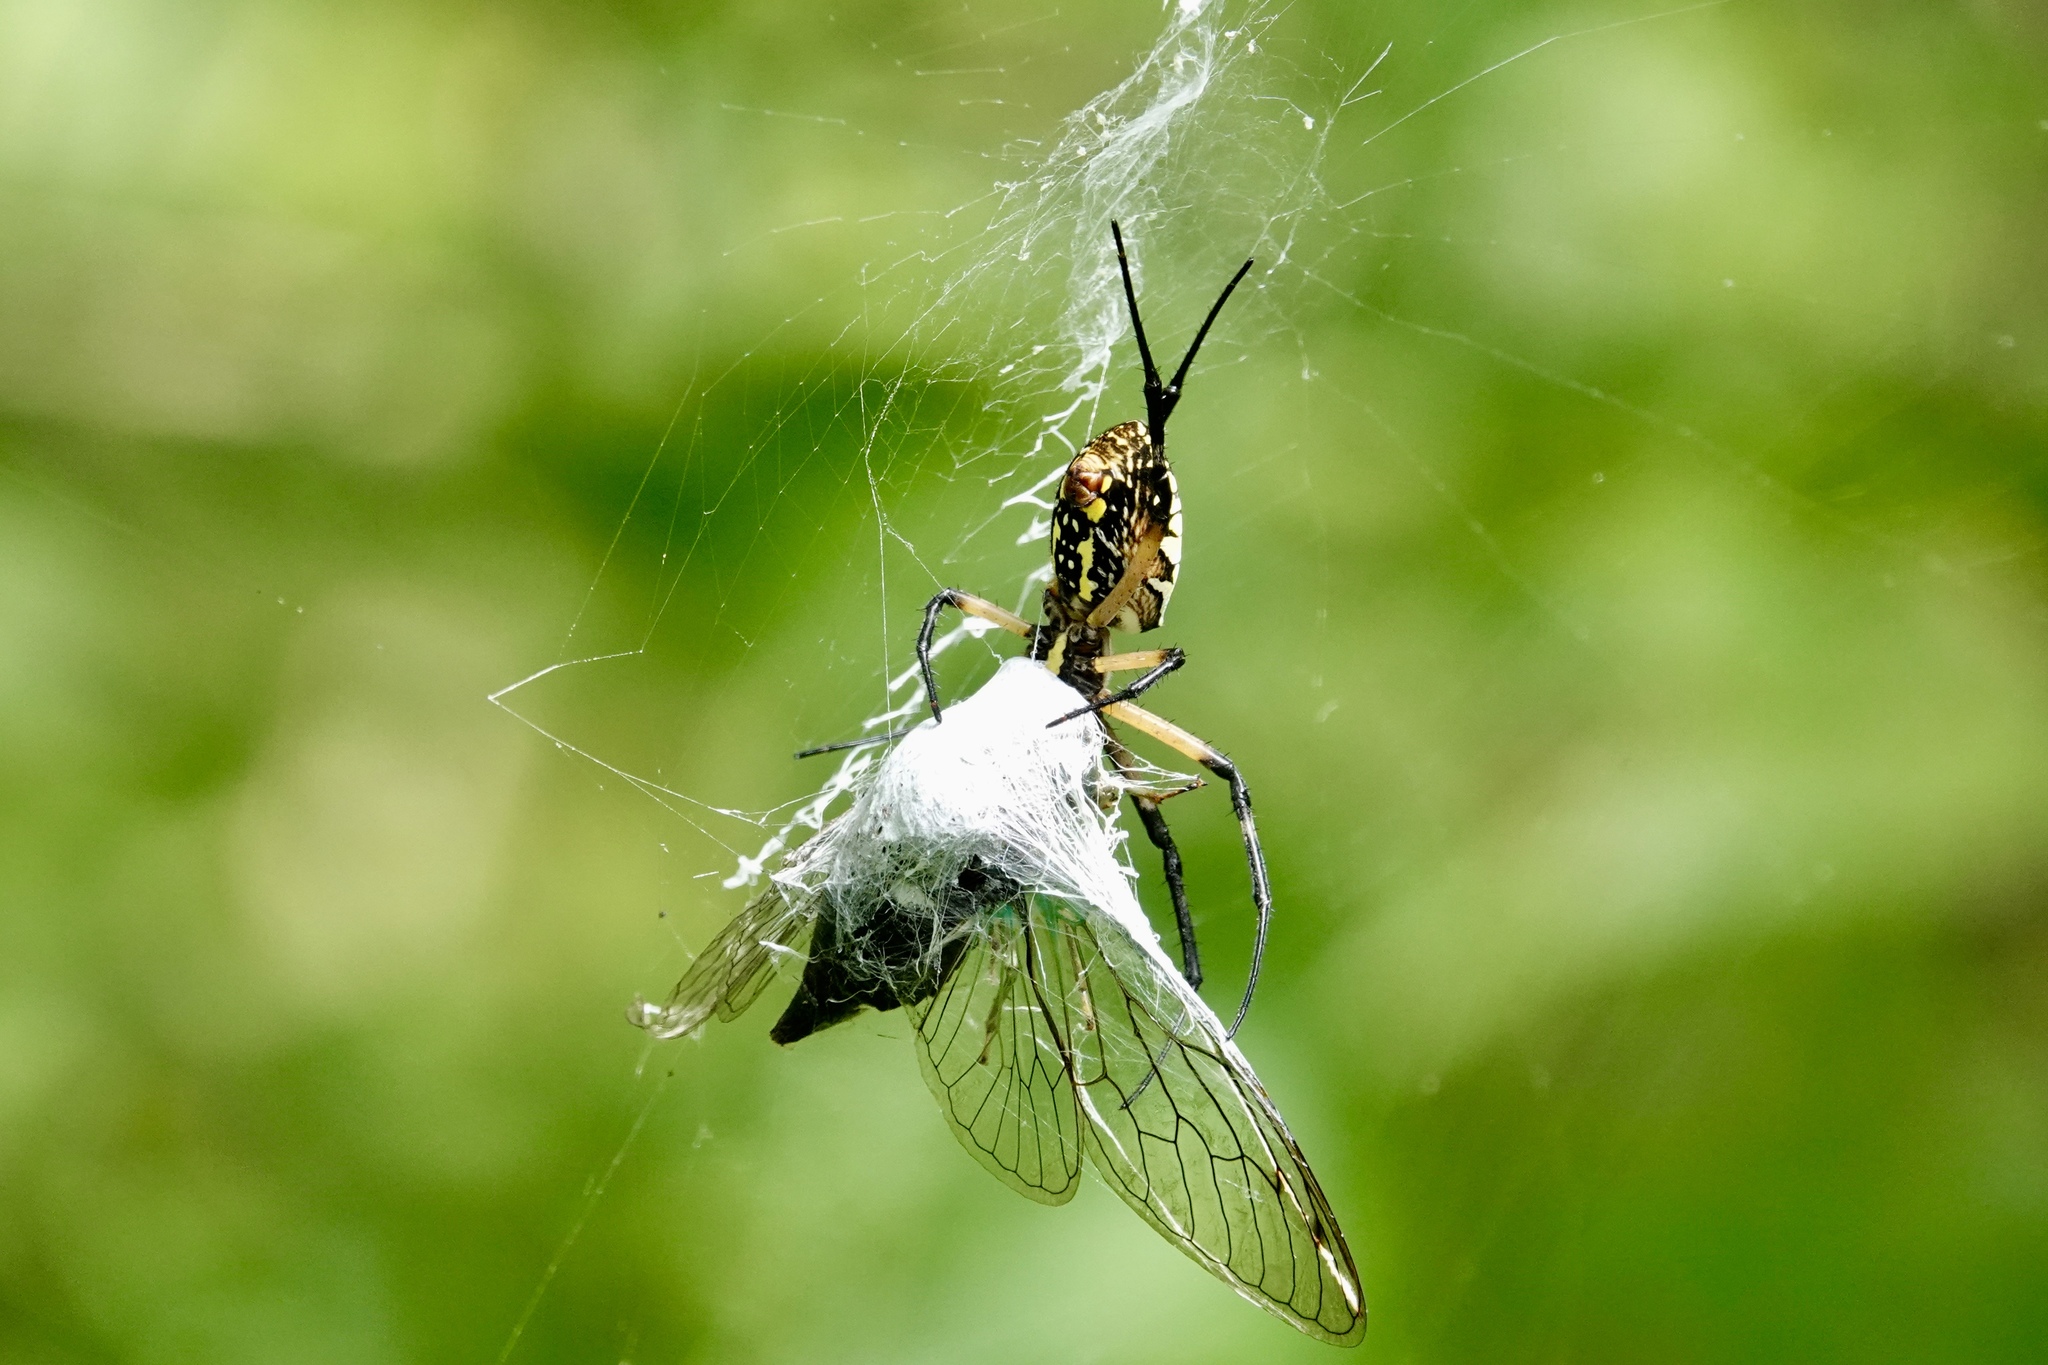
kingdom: Animalia
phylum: Arthropoda
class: Arachnida
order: Araneae
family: Araneidae
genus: Argiope
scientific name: Argiope aurantia
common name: Orb weavers
